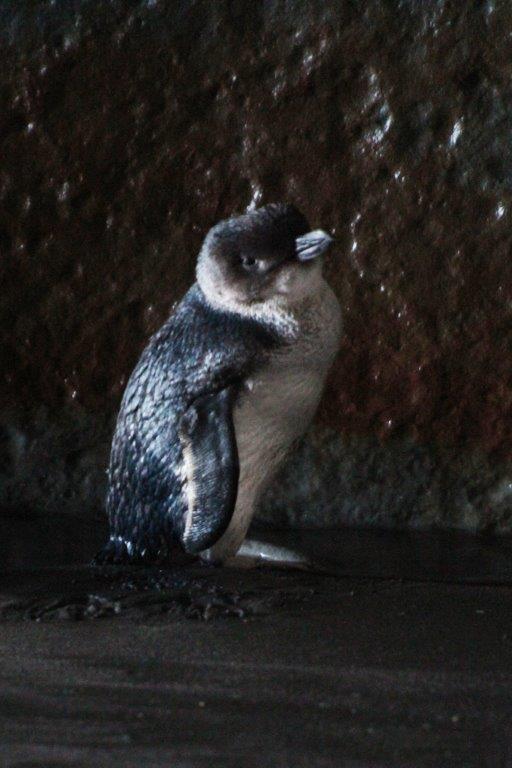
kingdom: Animalia
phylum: Chordata
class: Aves
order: Sphenisciformes
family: Spheniscidae
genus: Eudyptula
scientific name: Eudyptula minor
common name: Little penguin
